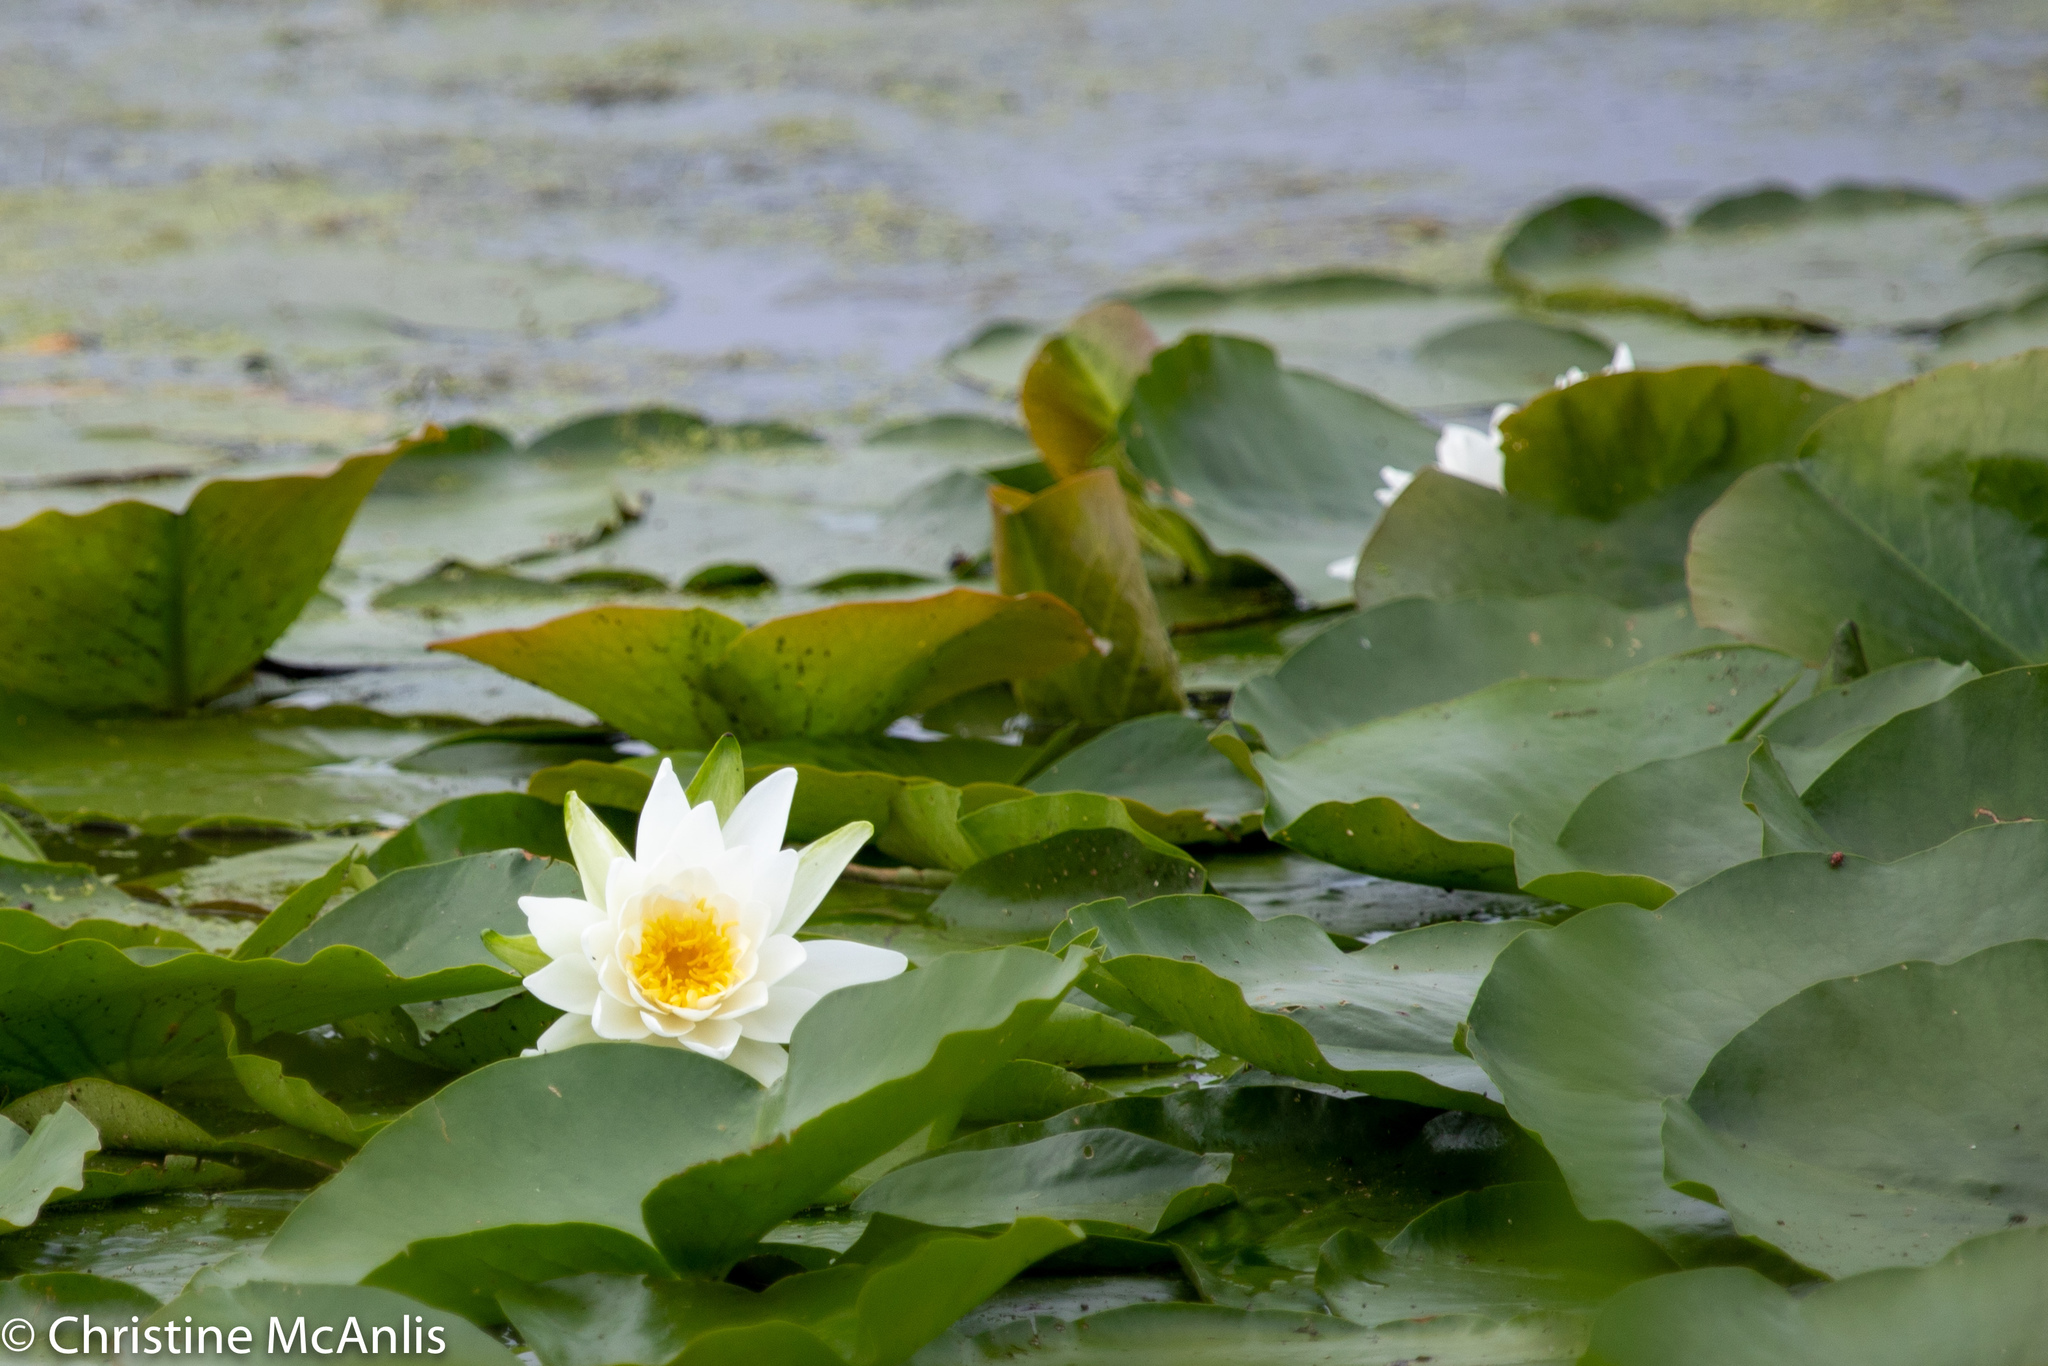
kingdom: Plantae
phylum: Tracheophyta
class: Magnoliopsida
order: Nymphaeales
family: Nymphaeaceae
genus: Nymphaea
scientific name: Nymphaea odorata
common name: Fragrant water-lily
